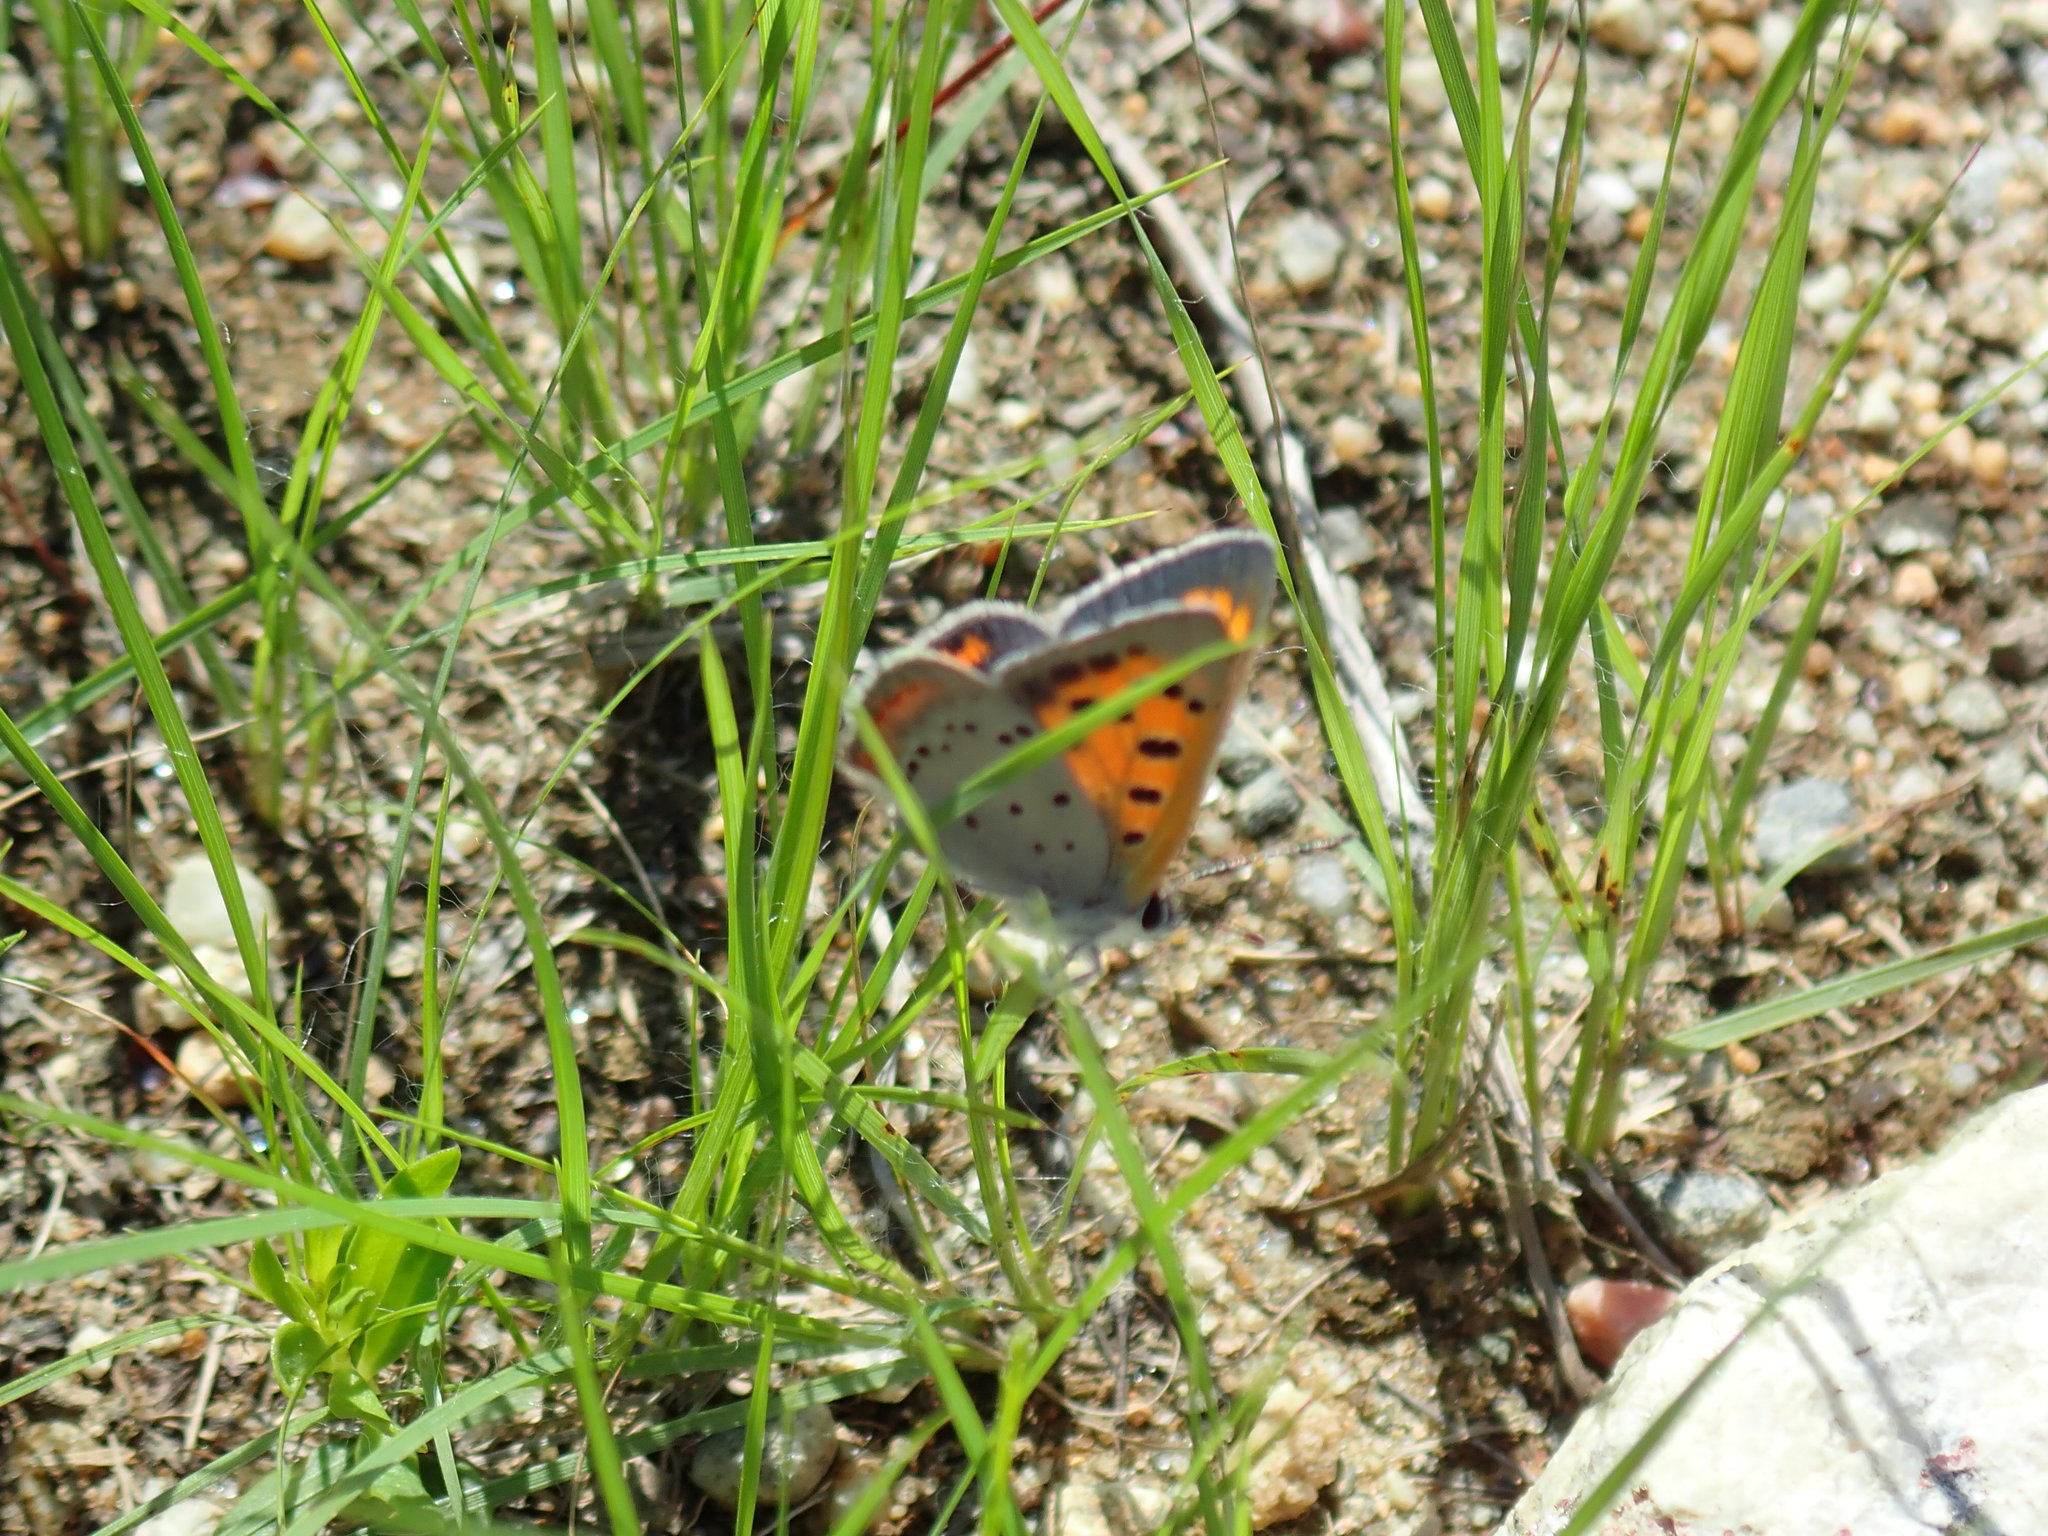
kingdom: Animalia
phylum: Arthropoda
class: Insecta
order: Lepidoptera
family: Lycaenidae
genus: Lycaena
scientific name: Lycaena hypophlaeas
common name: American copper
